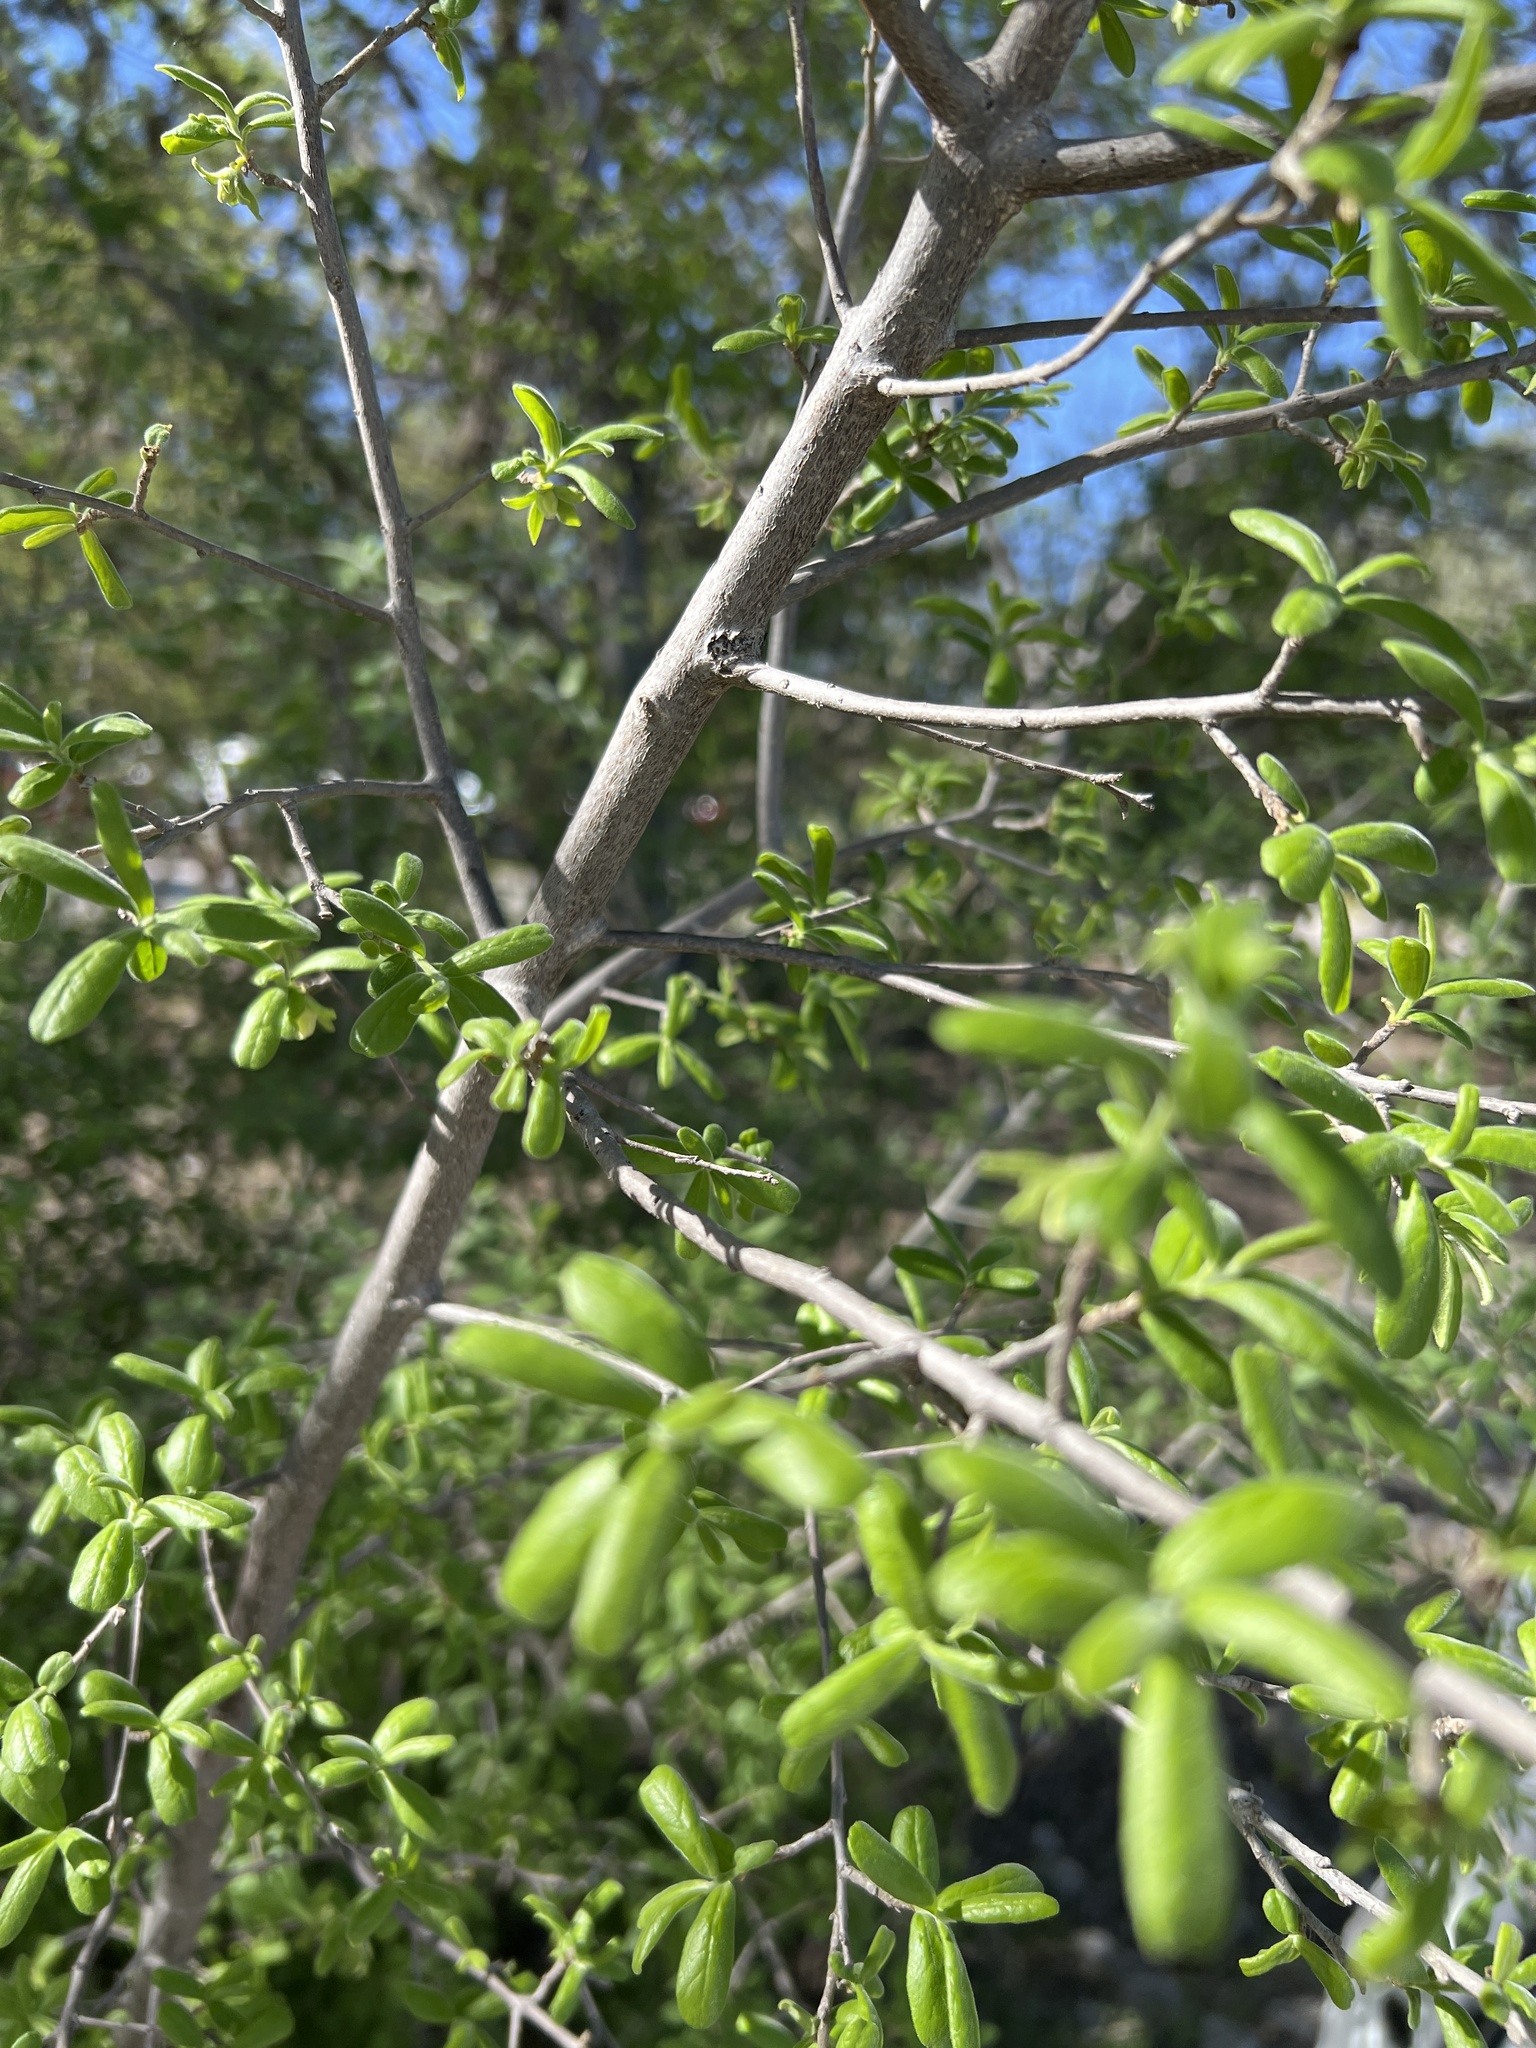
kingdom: Plantae
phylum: Tracheophyta
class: Magnoliopsida
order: Ericales
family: Ebenaceae
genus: Diospyros
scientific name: Diospyros texana
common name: Texas persimmon
